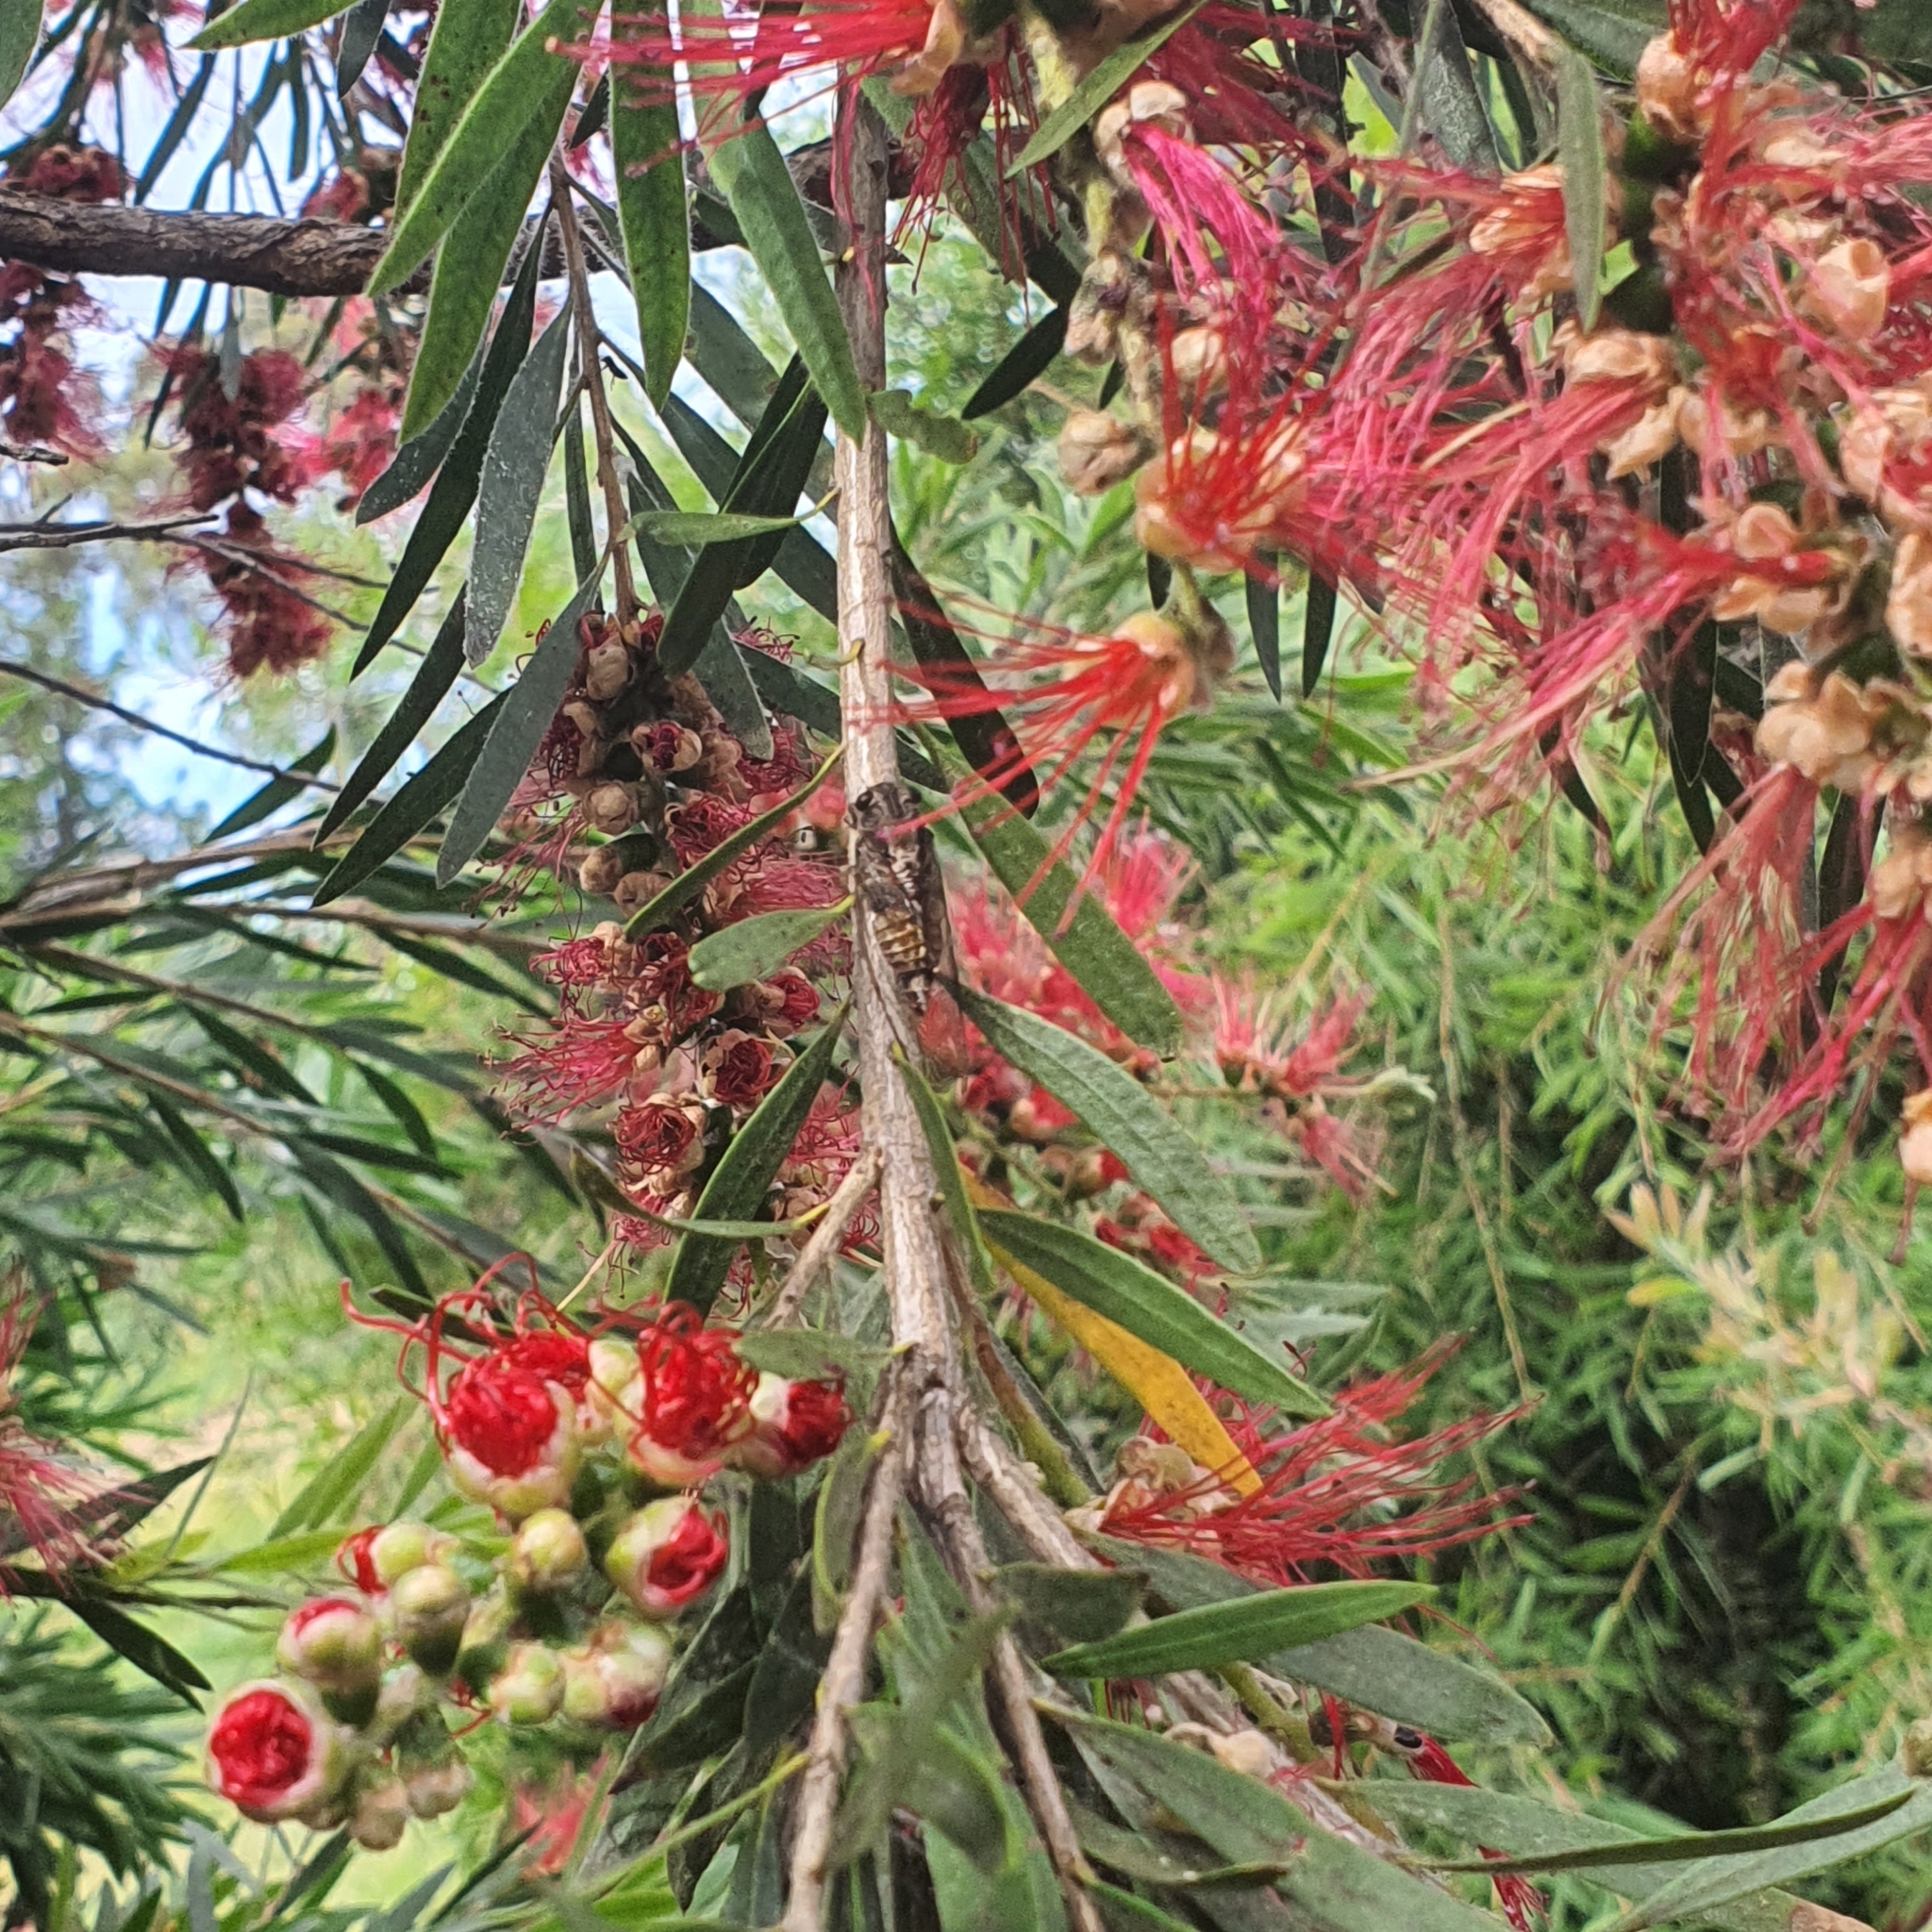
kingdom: Animalia
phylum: Arthropoda
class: Insecta
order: Hemiptera
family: Cicadidae
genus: Yoyetta
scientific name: Yoyetta celis
